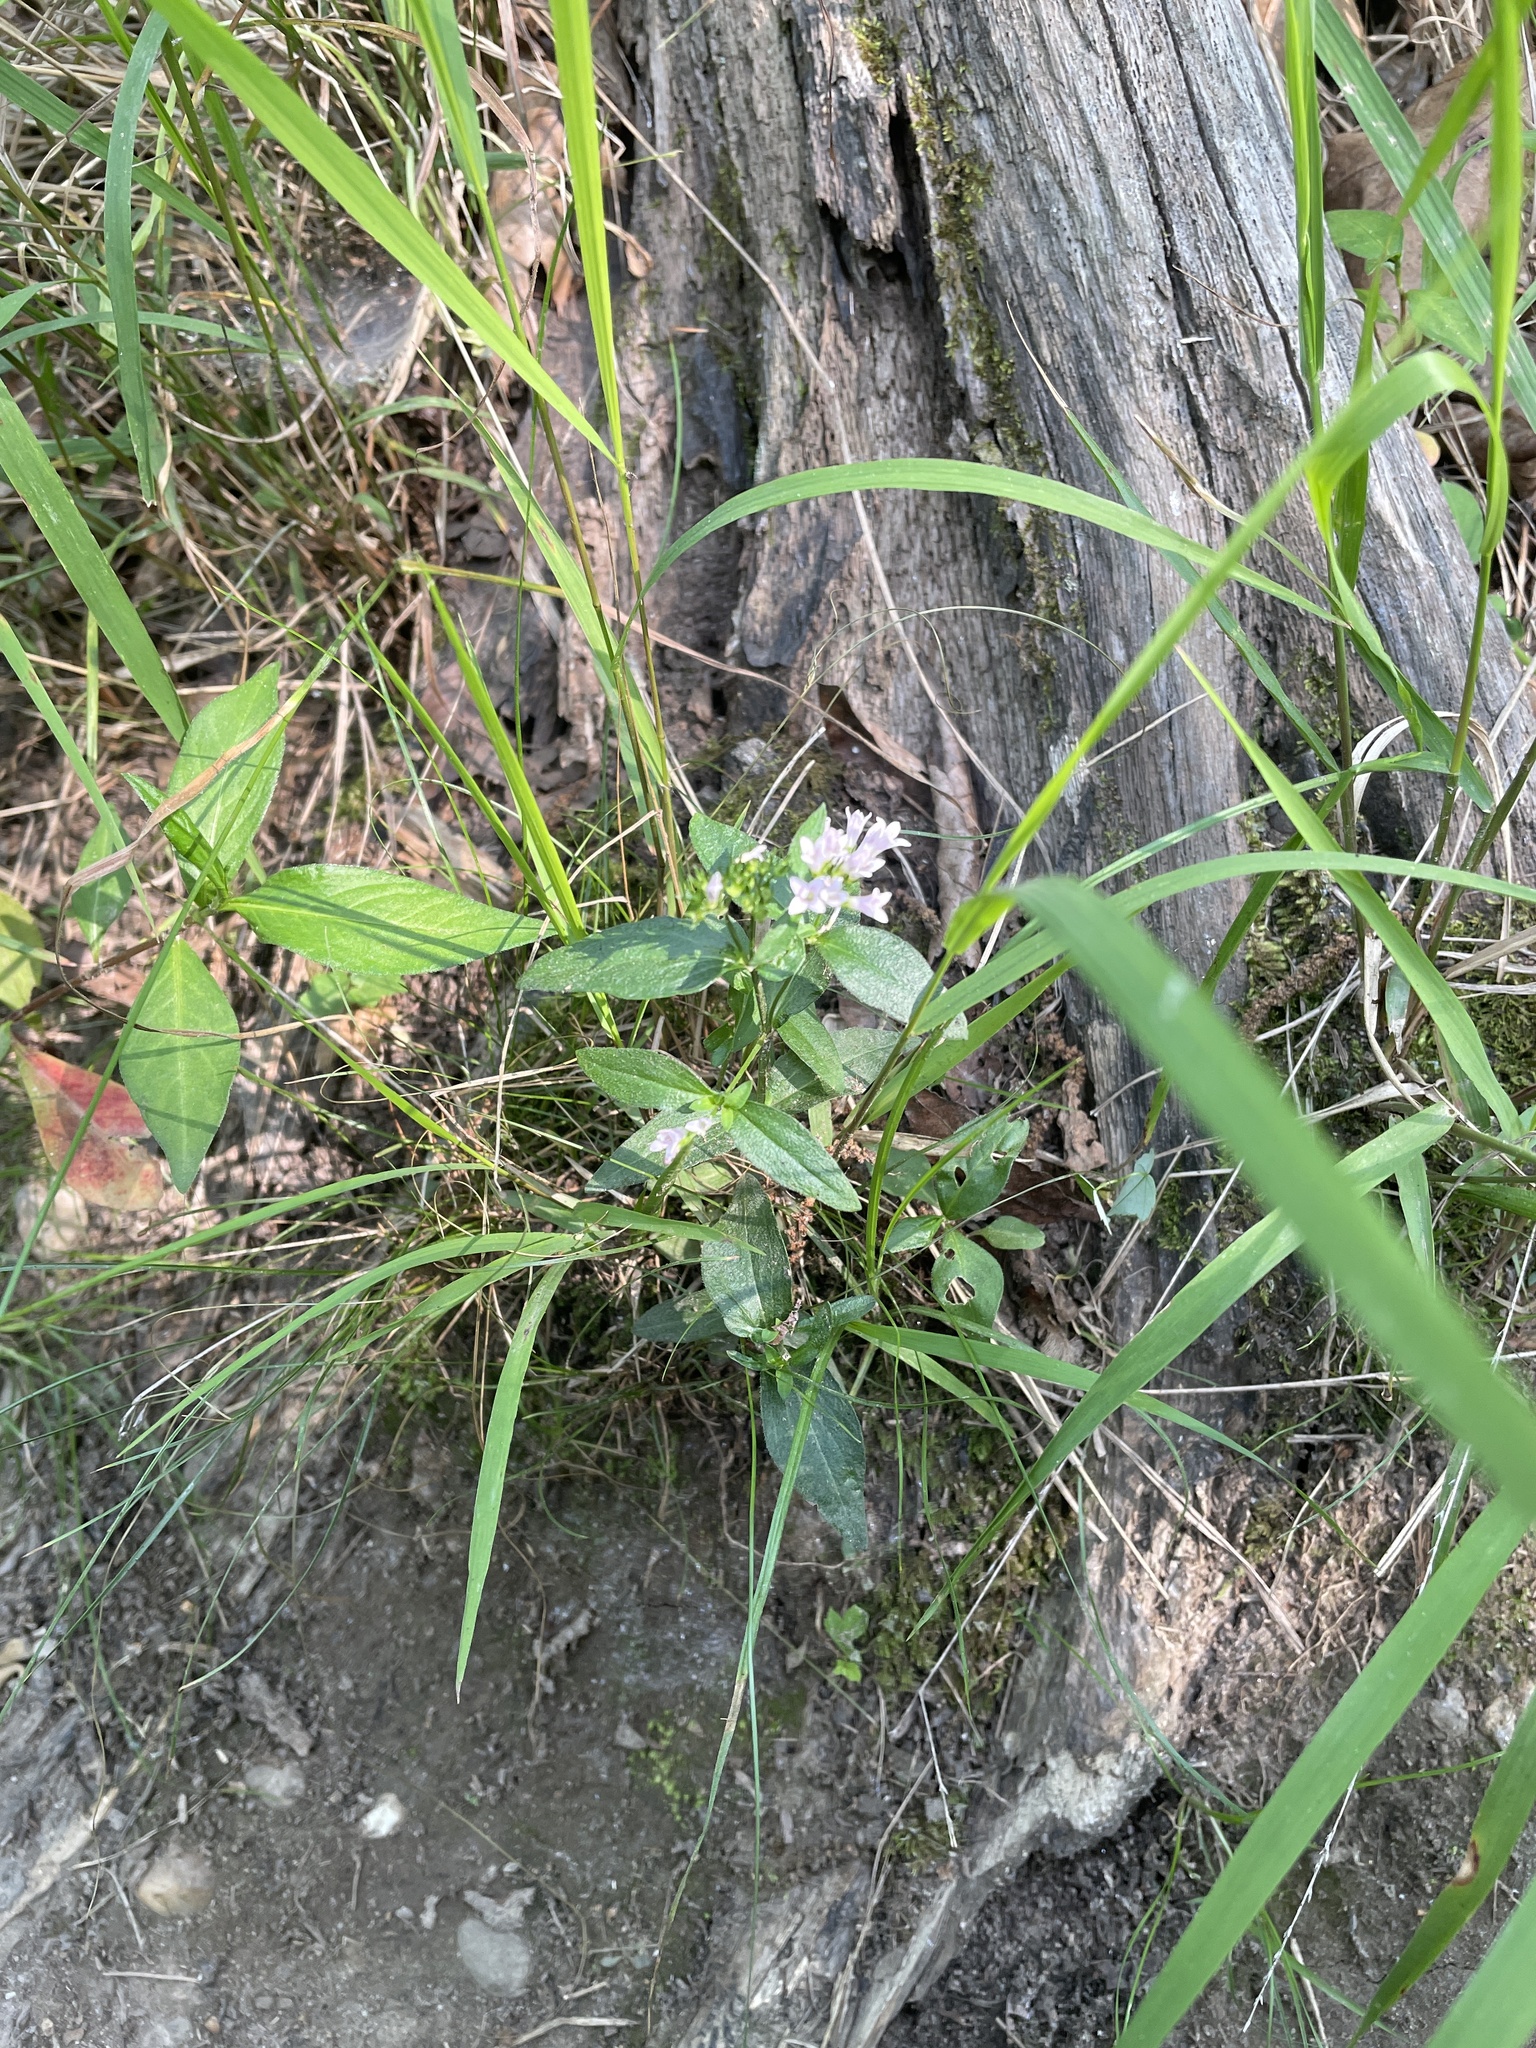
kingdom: Plantae
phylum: Tracheophyta
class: Magnoliopsida
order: Gentianales
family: Rubiaceae
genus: Houstonia
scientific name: Houstonia purpurea
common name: Summer bluet
